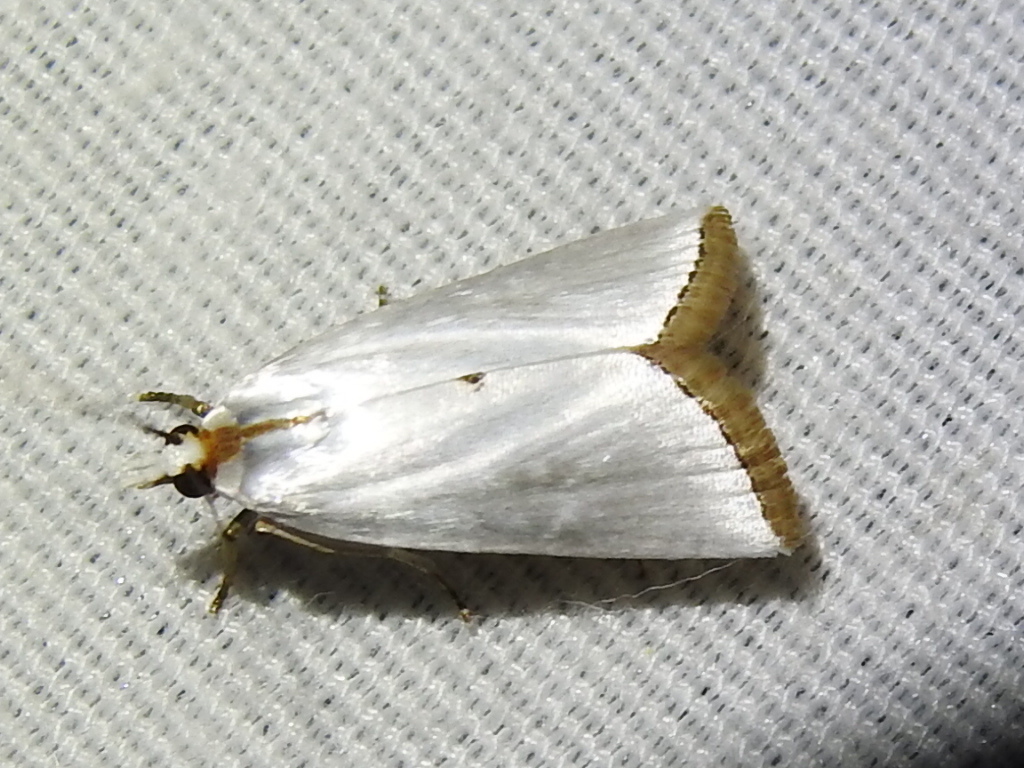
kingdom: Animalia
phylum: Arthropoda
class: Insecta
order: Lepidoptera
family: Crambidae
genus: Argyria
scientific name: Argyria nivalis
